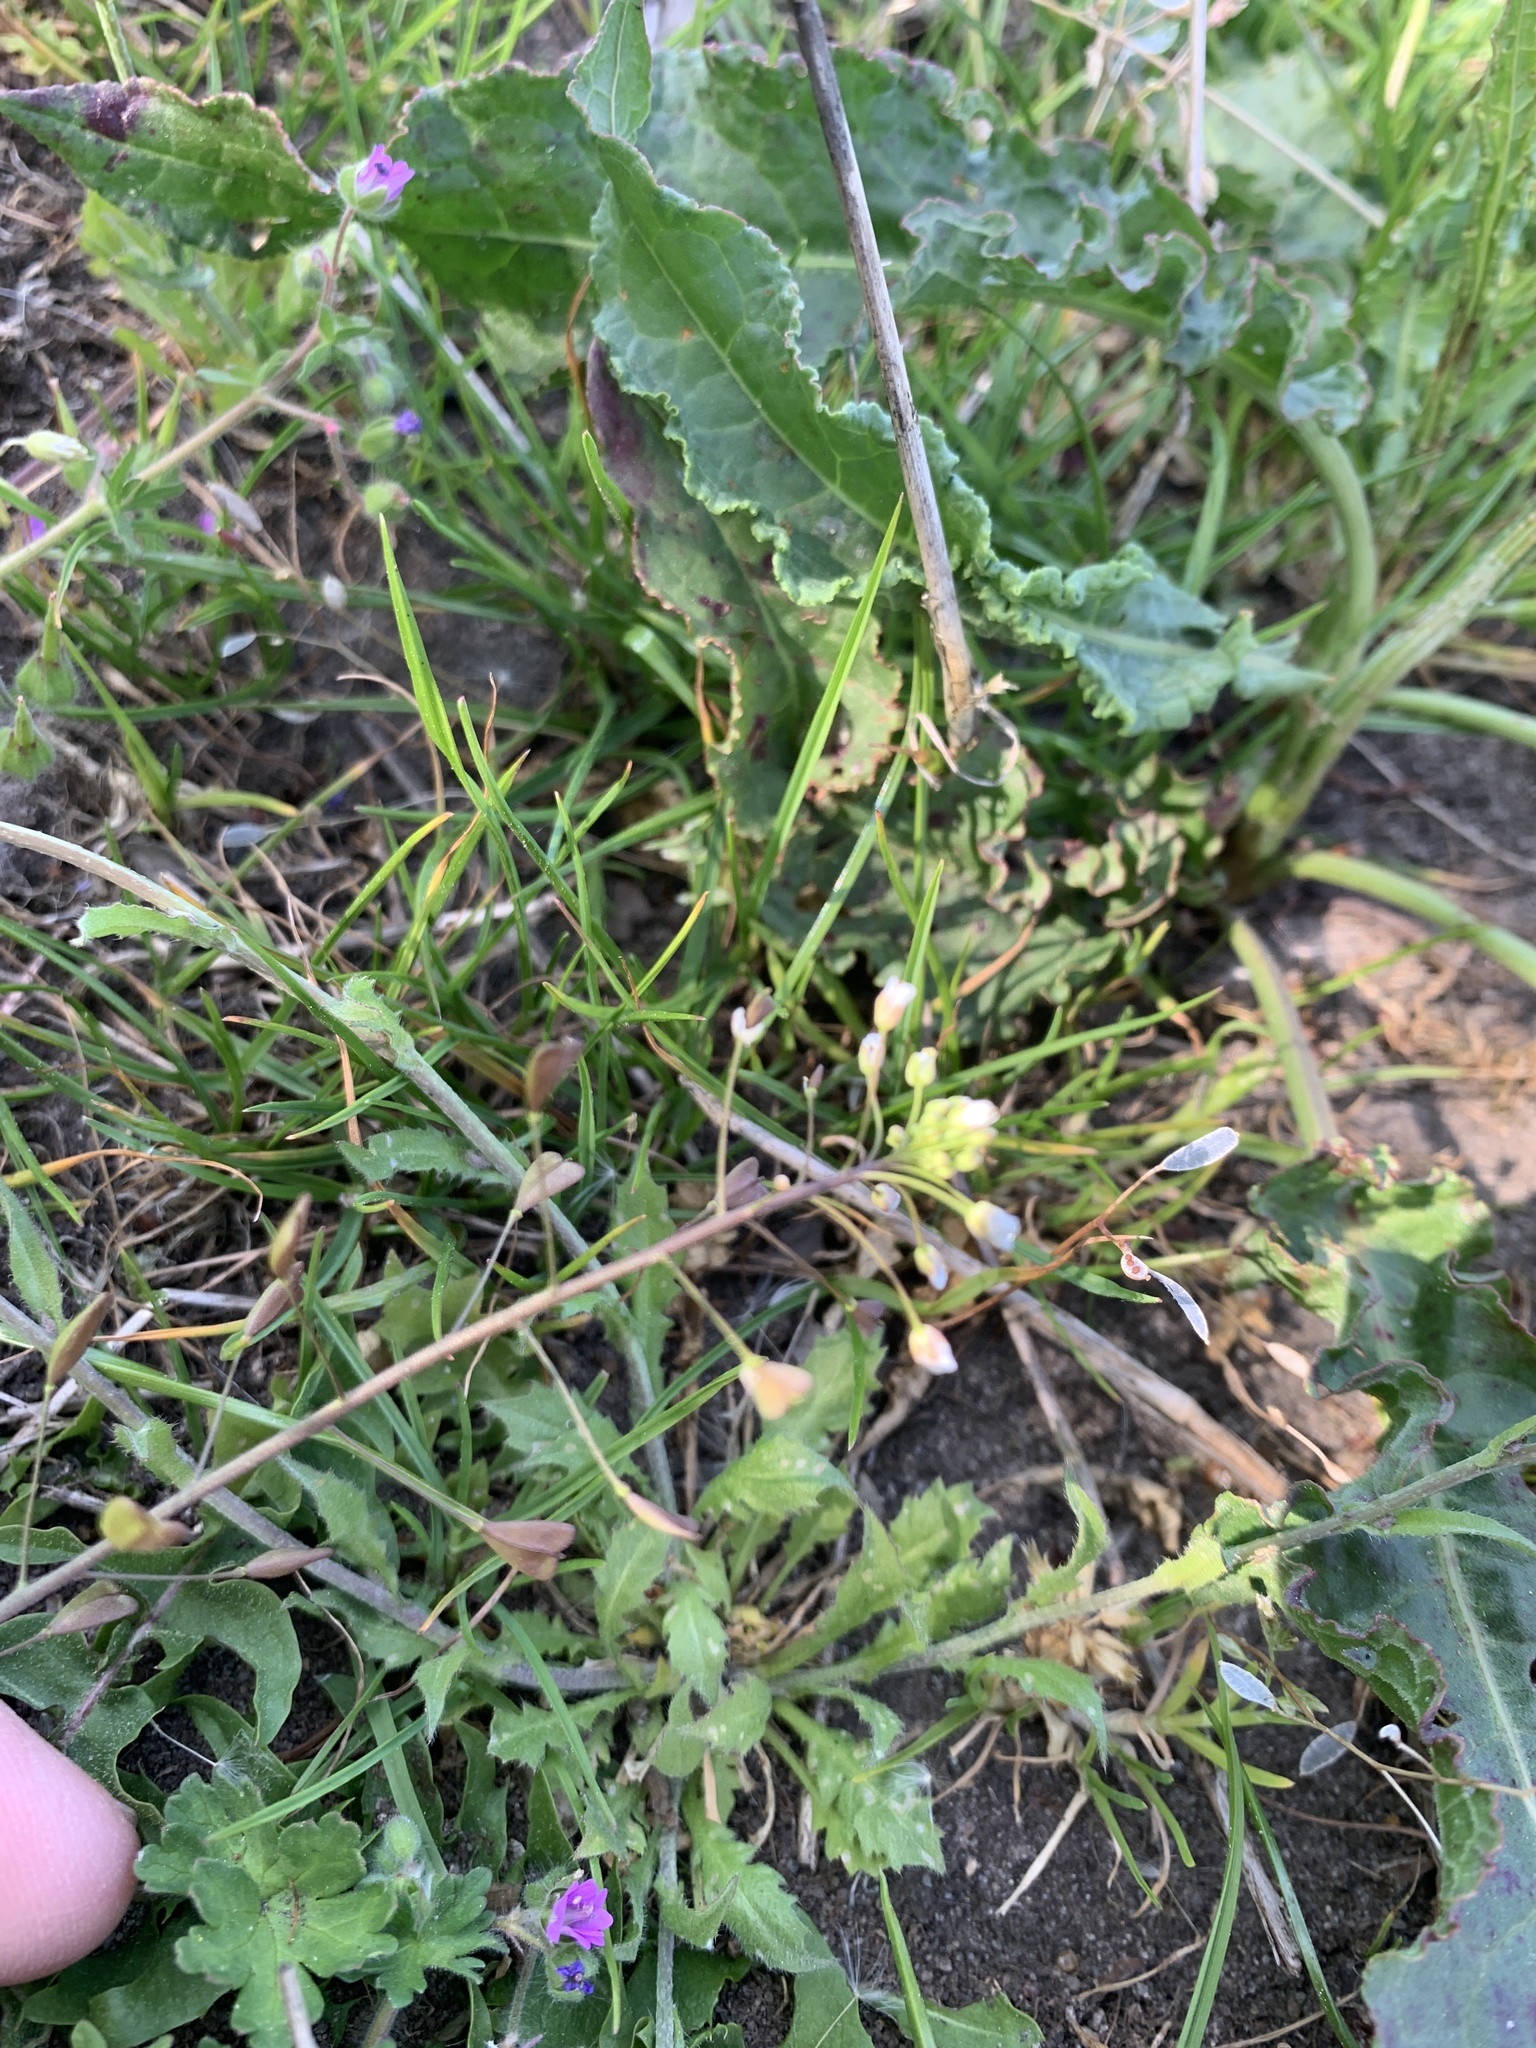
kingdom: Plantae
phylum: Tracheophyta
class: Magnoliopsida
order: Brassicales
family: Brassicaceae
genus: Capsella
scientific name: Capsella bursa-pastoris
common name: Shepherd's purse
